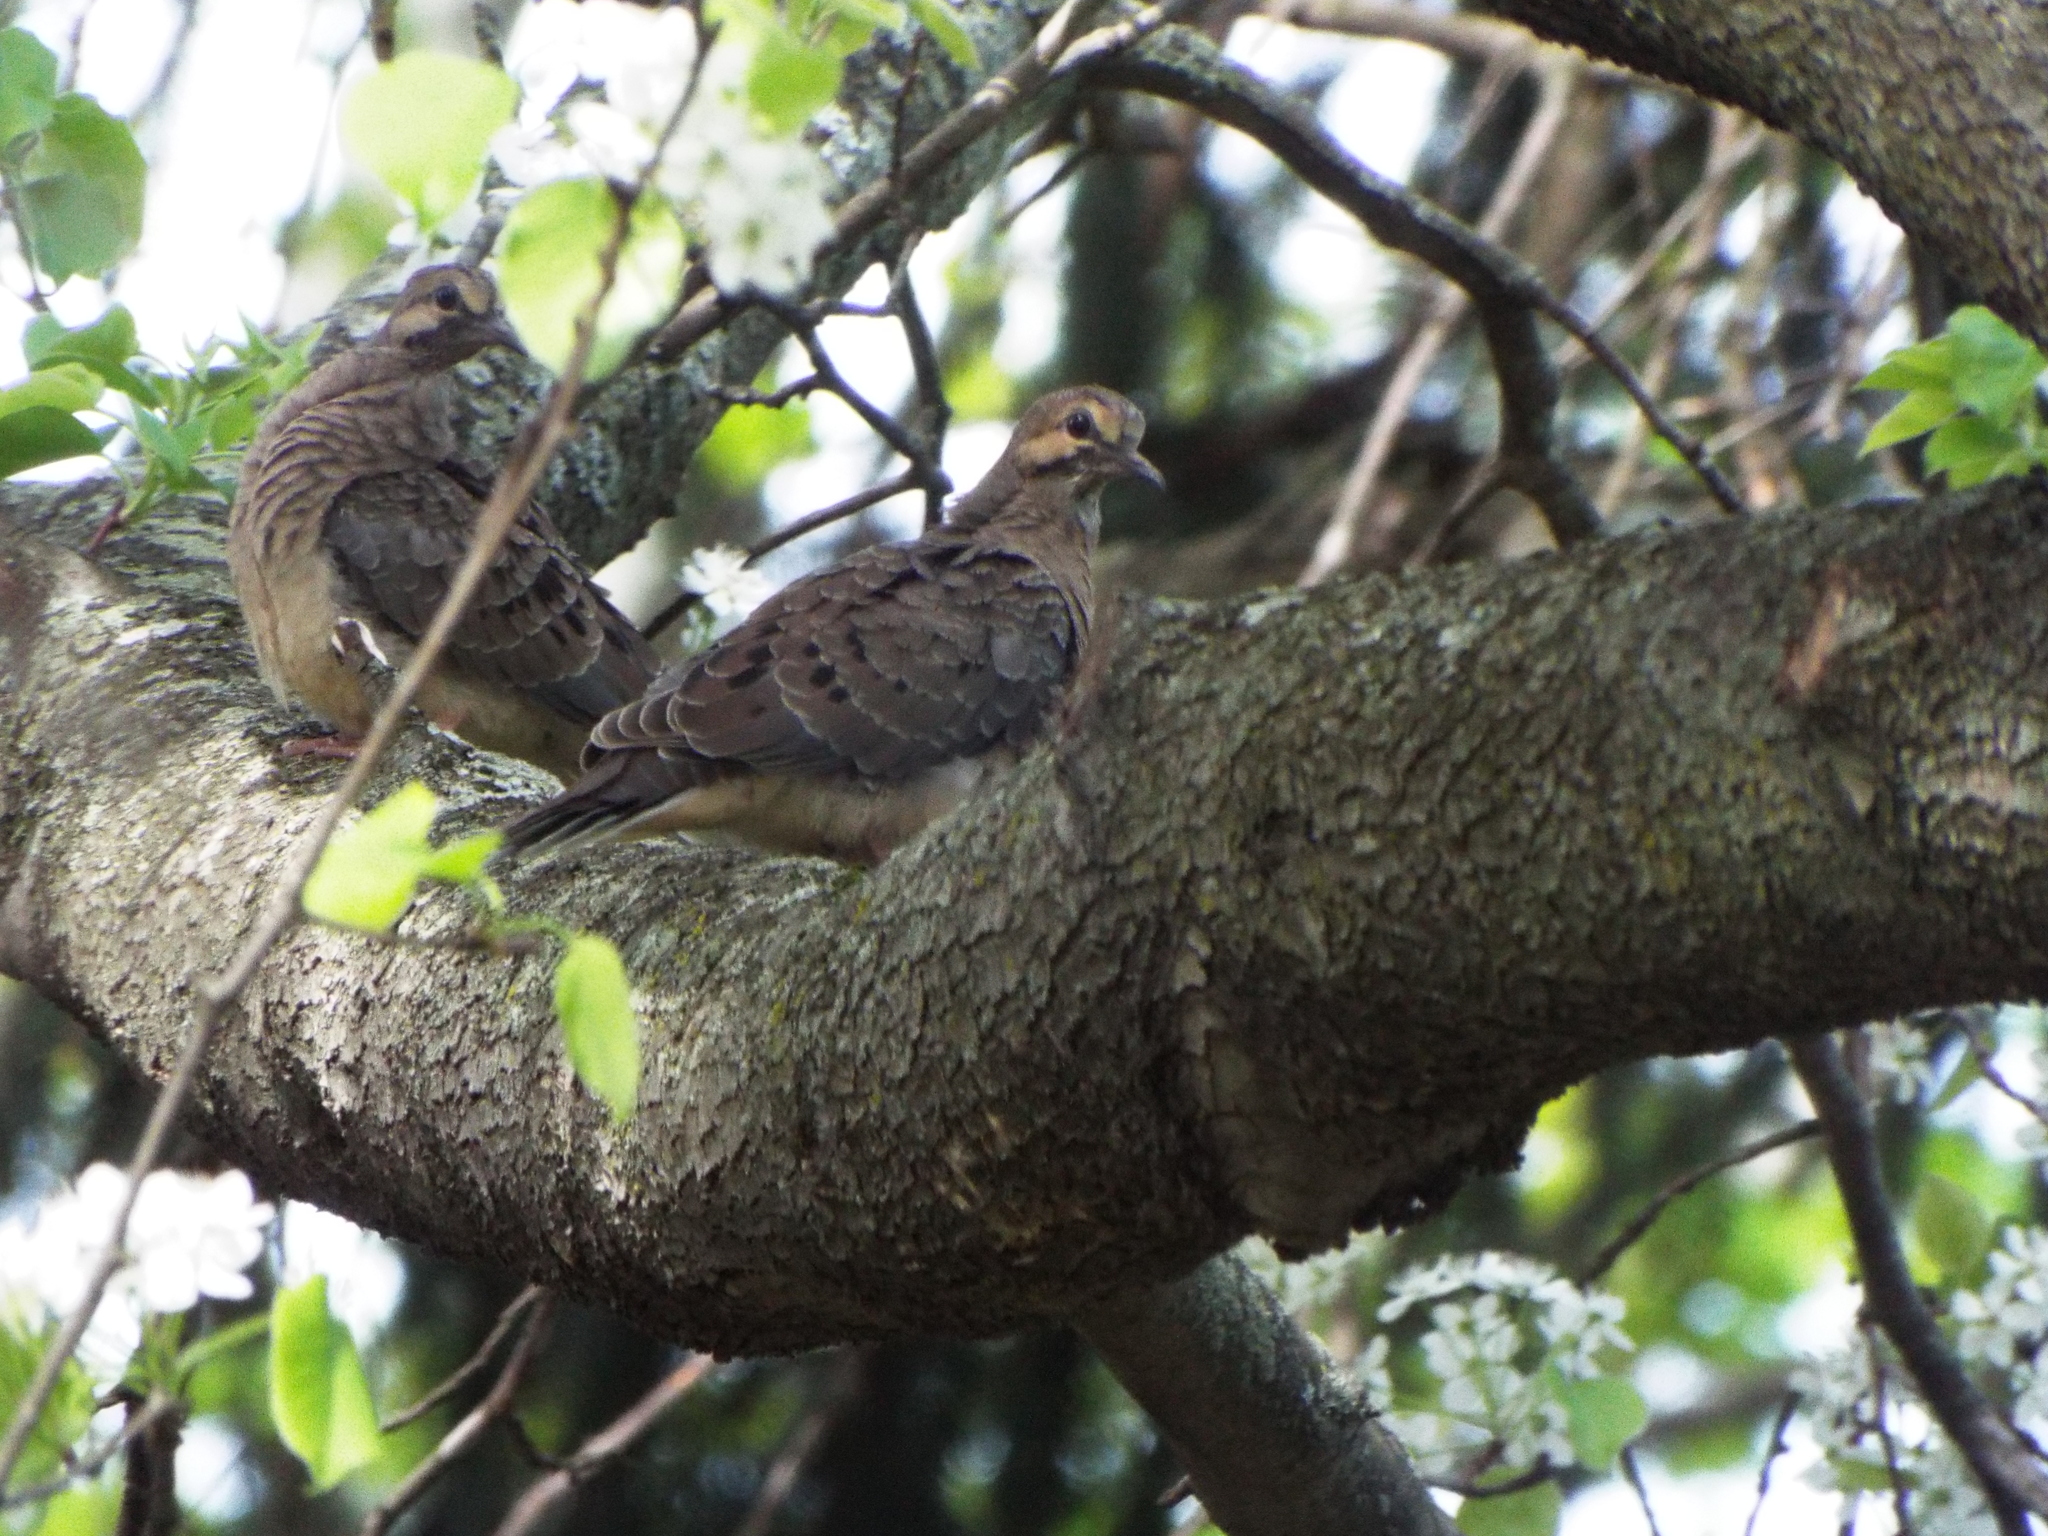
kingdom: Animalia
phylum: Chordata
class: Aves
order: Columbiformes
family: Columbidae
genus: Zenaida
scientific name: Zenaida macroura
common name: Mourning dove
